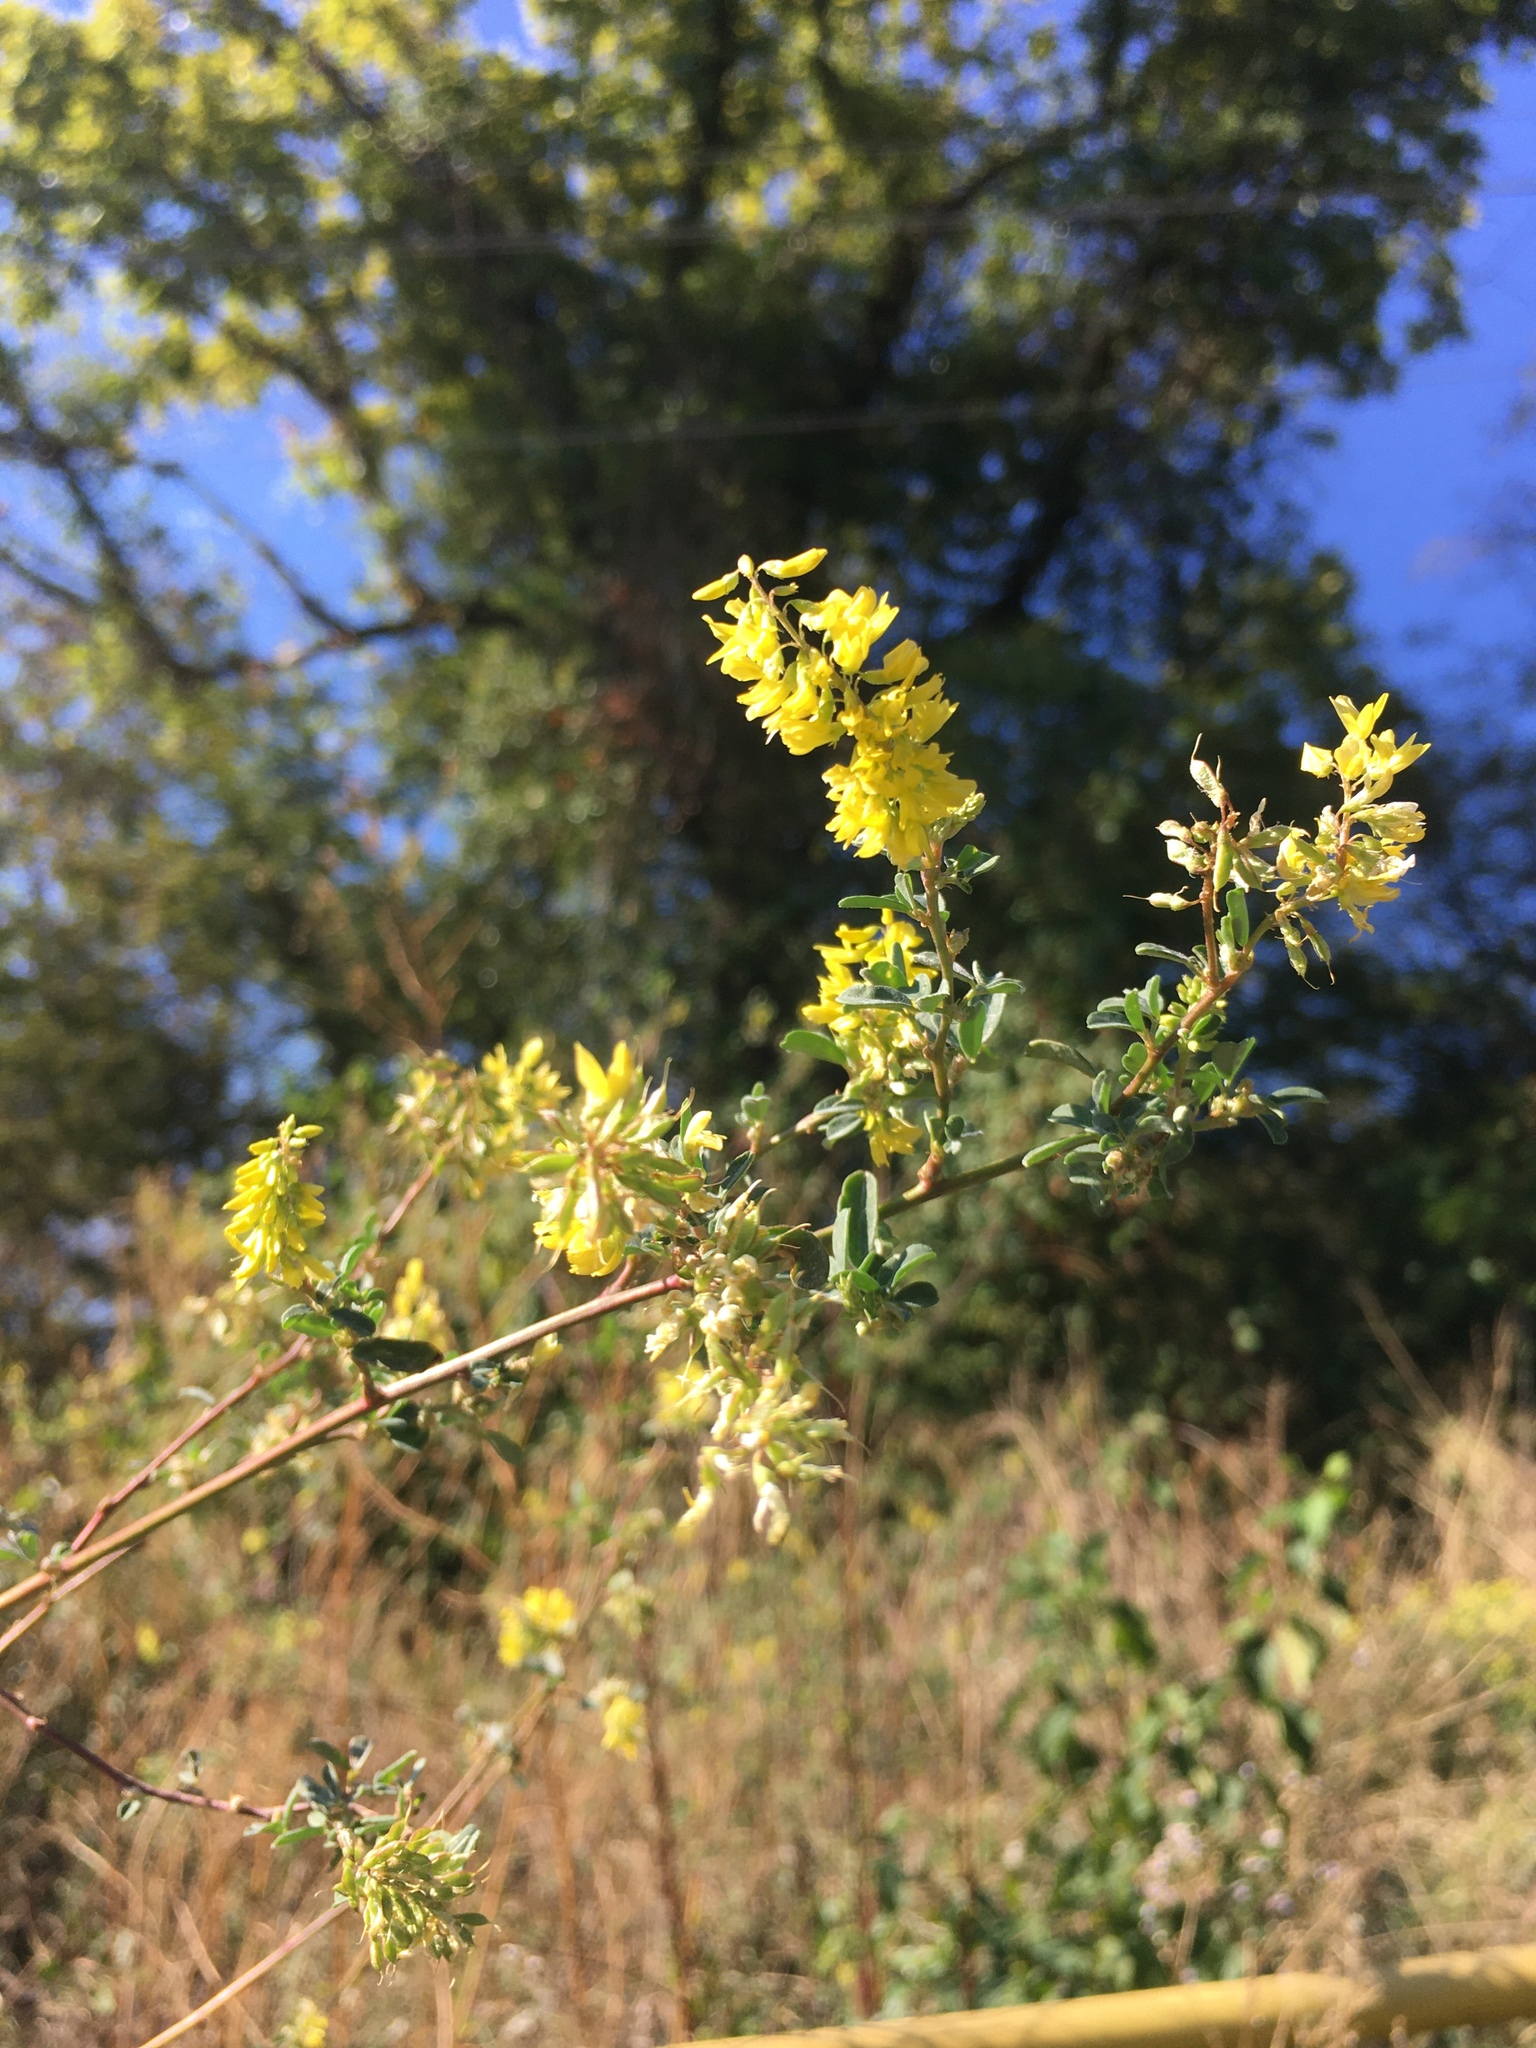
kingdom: Plantae
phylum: Tracheophyta
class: Magnoliopsida
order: Fabales
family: Fabaceae
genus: Melilotus
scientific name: Melilotus officinalis
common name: Sweetclover
